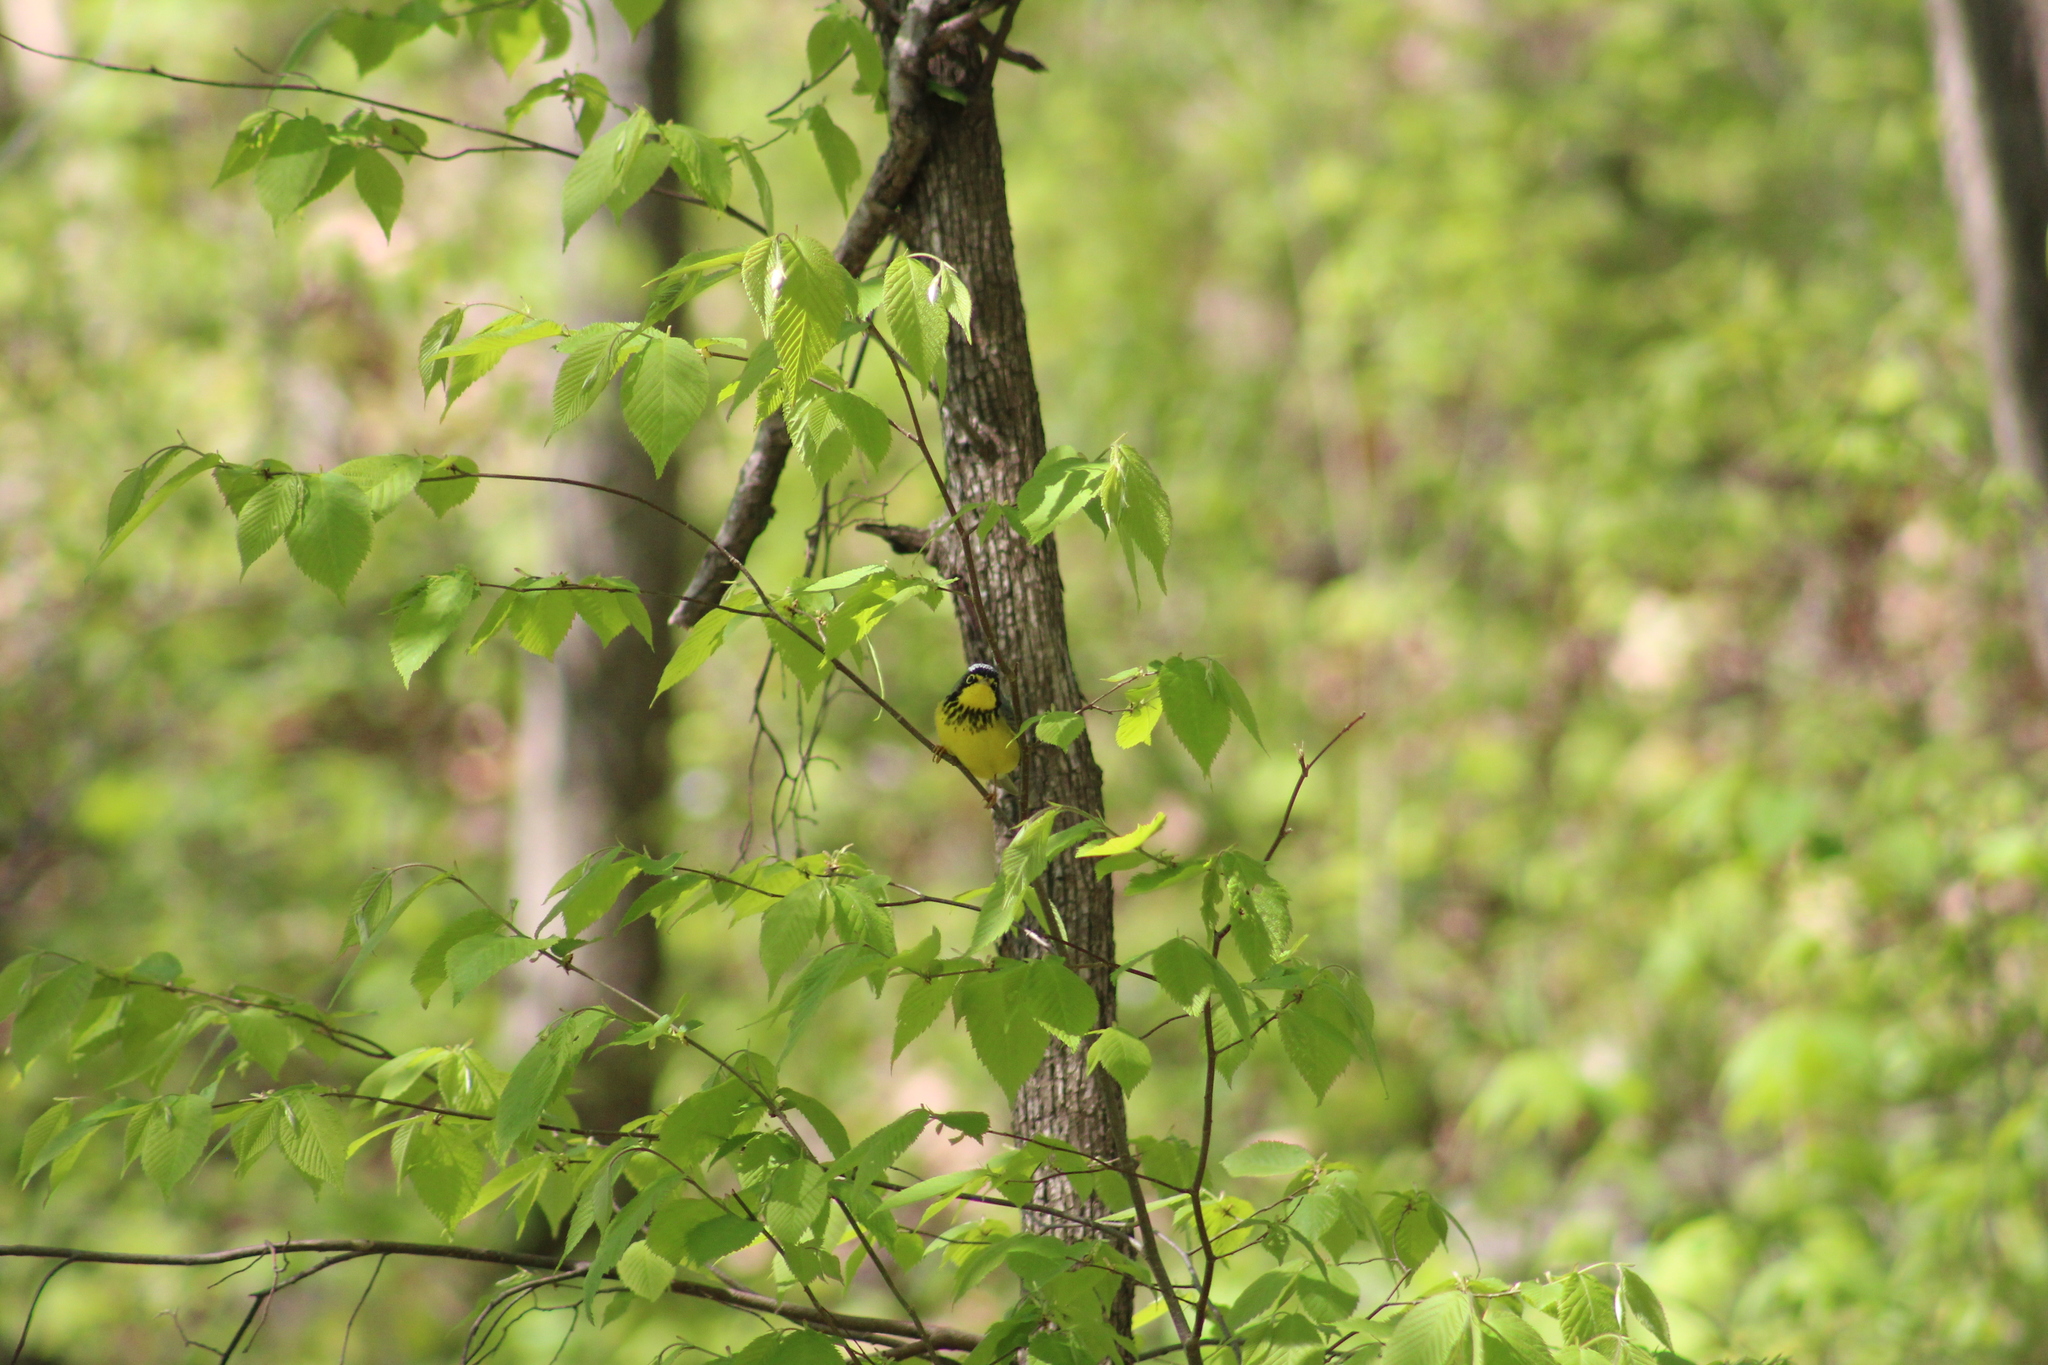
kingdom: Animalia
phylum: Chordata
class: Aves
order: Passeriformes
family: Parulidae
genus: Cardellina
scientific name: Cardellina canadensis
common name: Canada warbler
